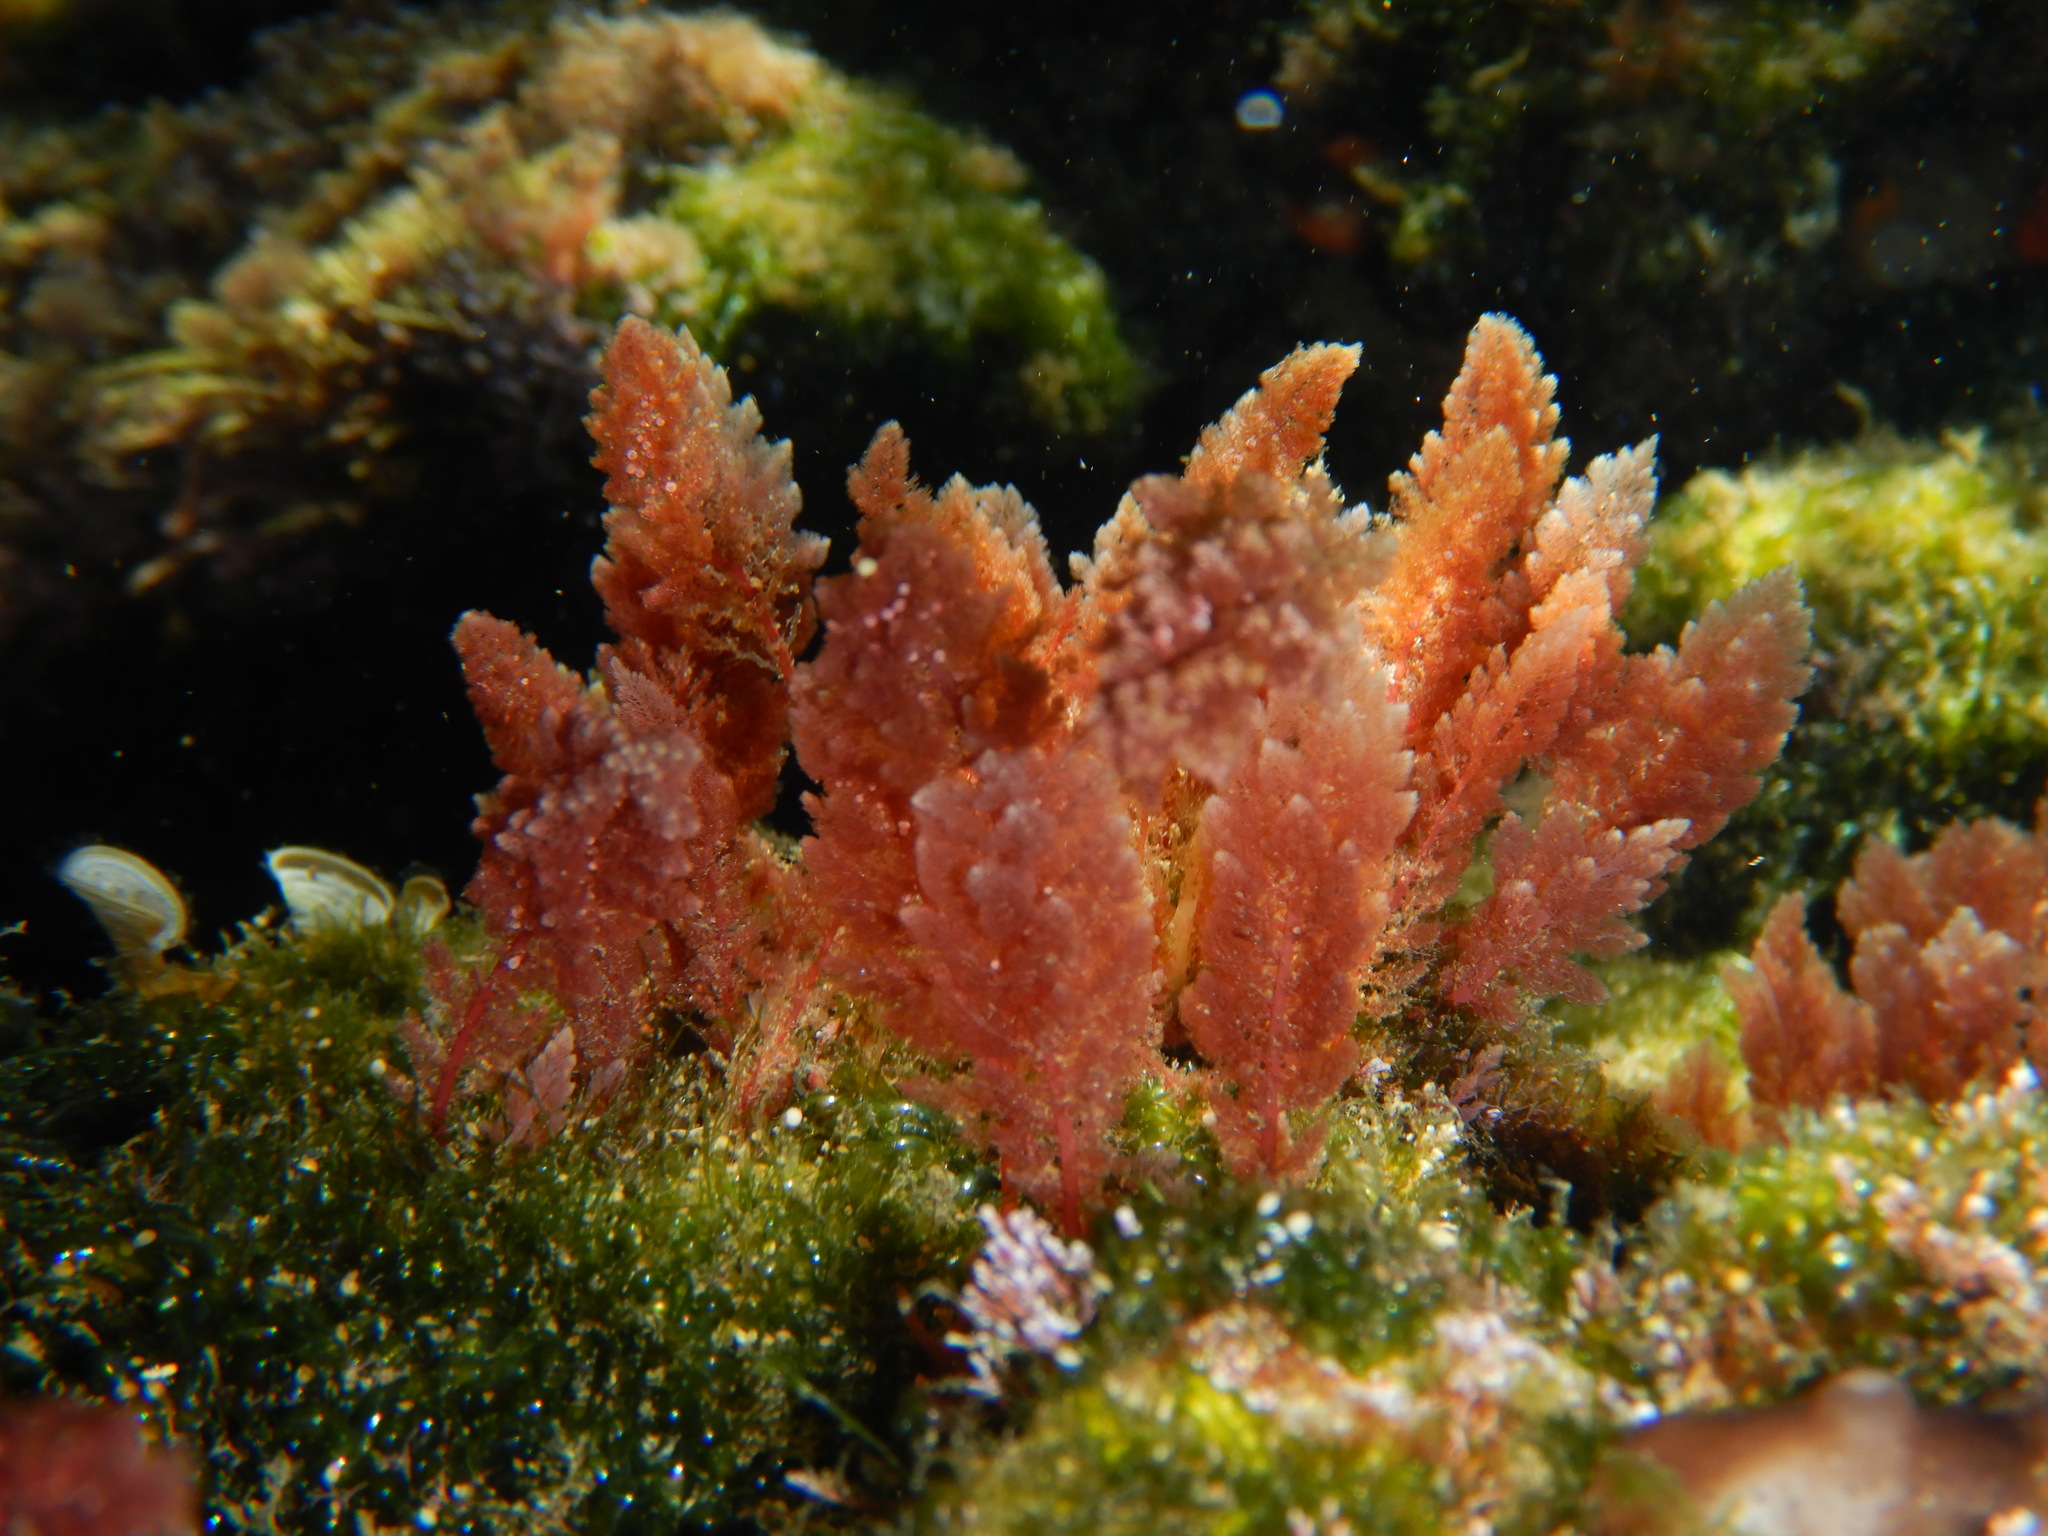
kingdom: Plantae
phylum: Rhodophyta
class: Florideophyceae
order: Bonnemaisoniales
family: Bonnemaisoniaceae
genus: Asparagopsis
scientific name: Asparagopsis taxiformis
